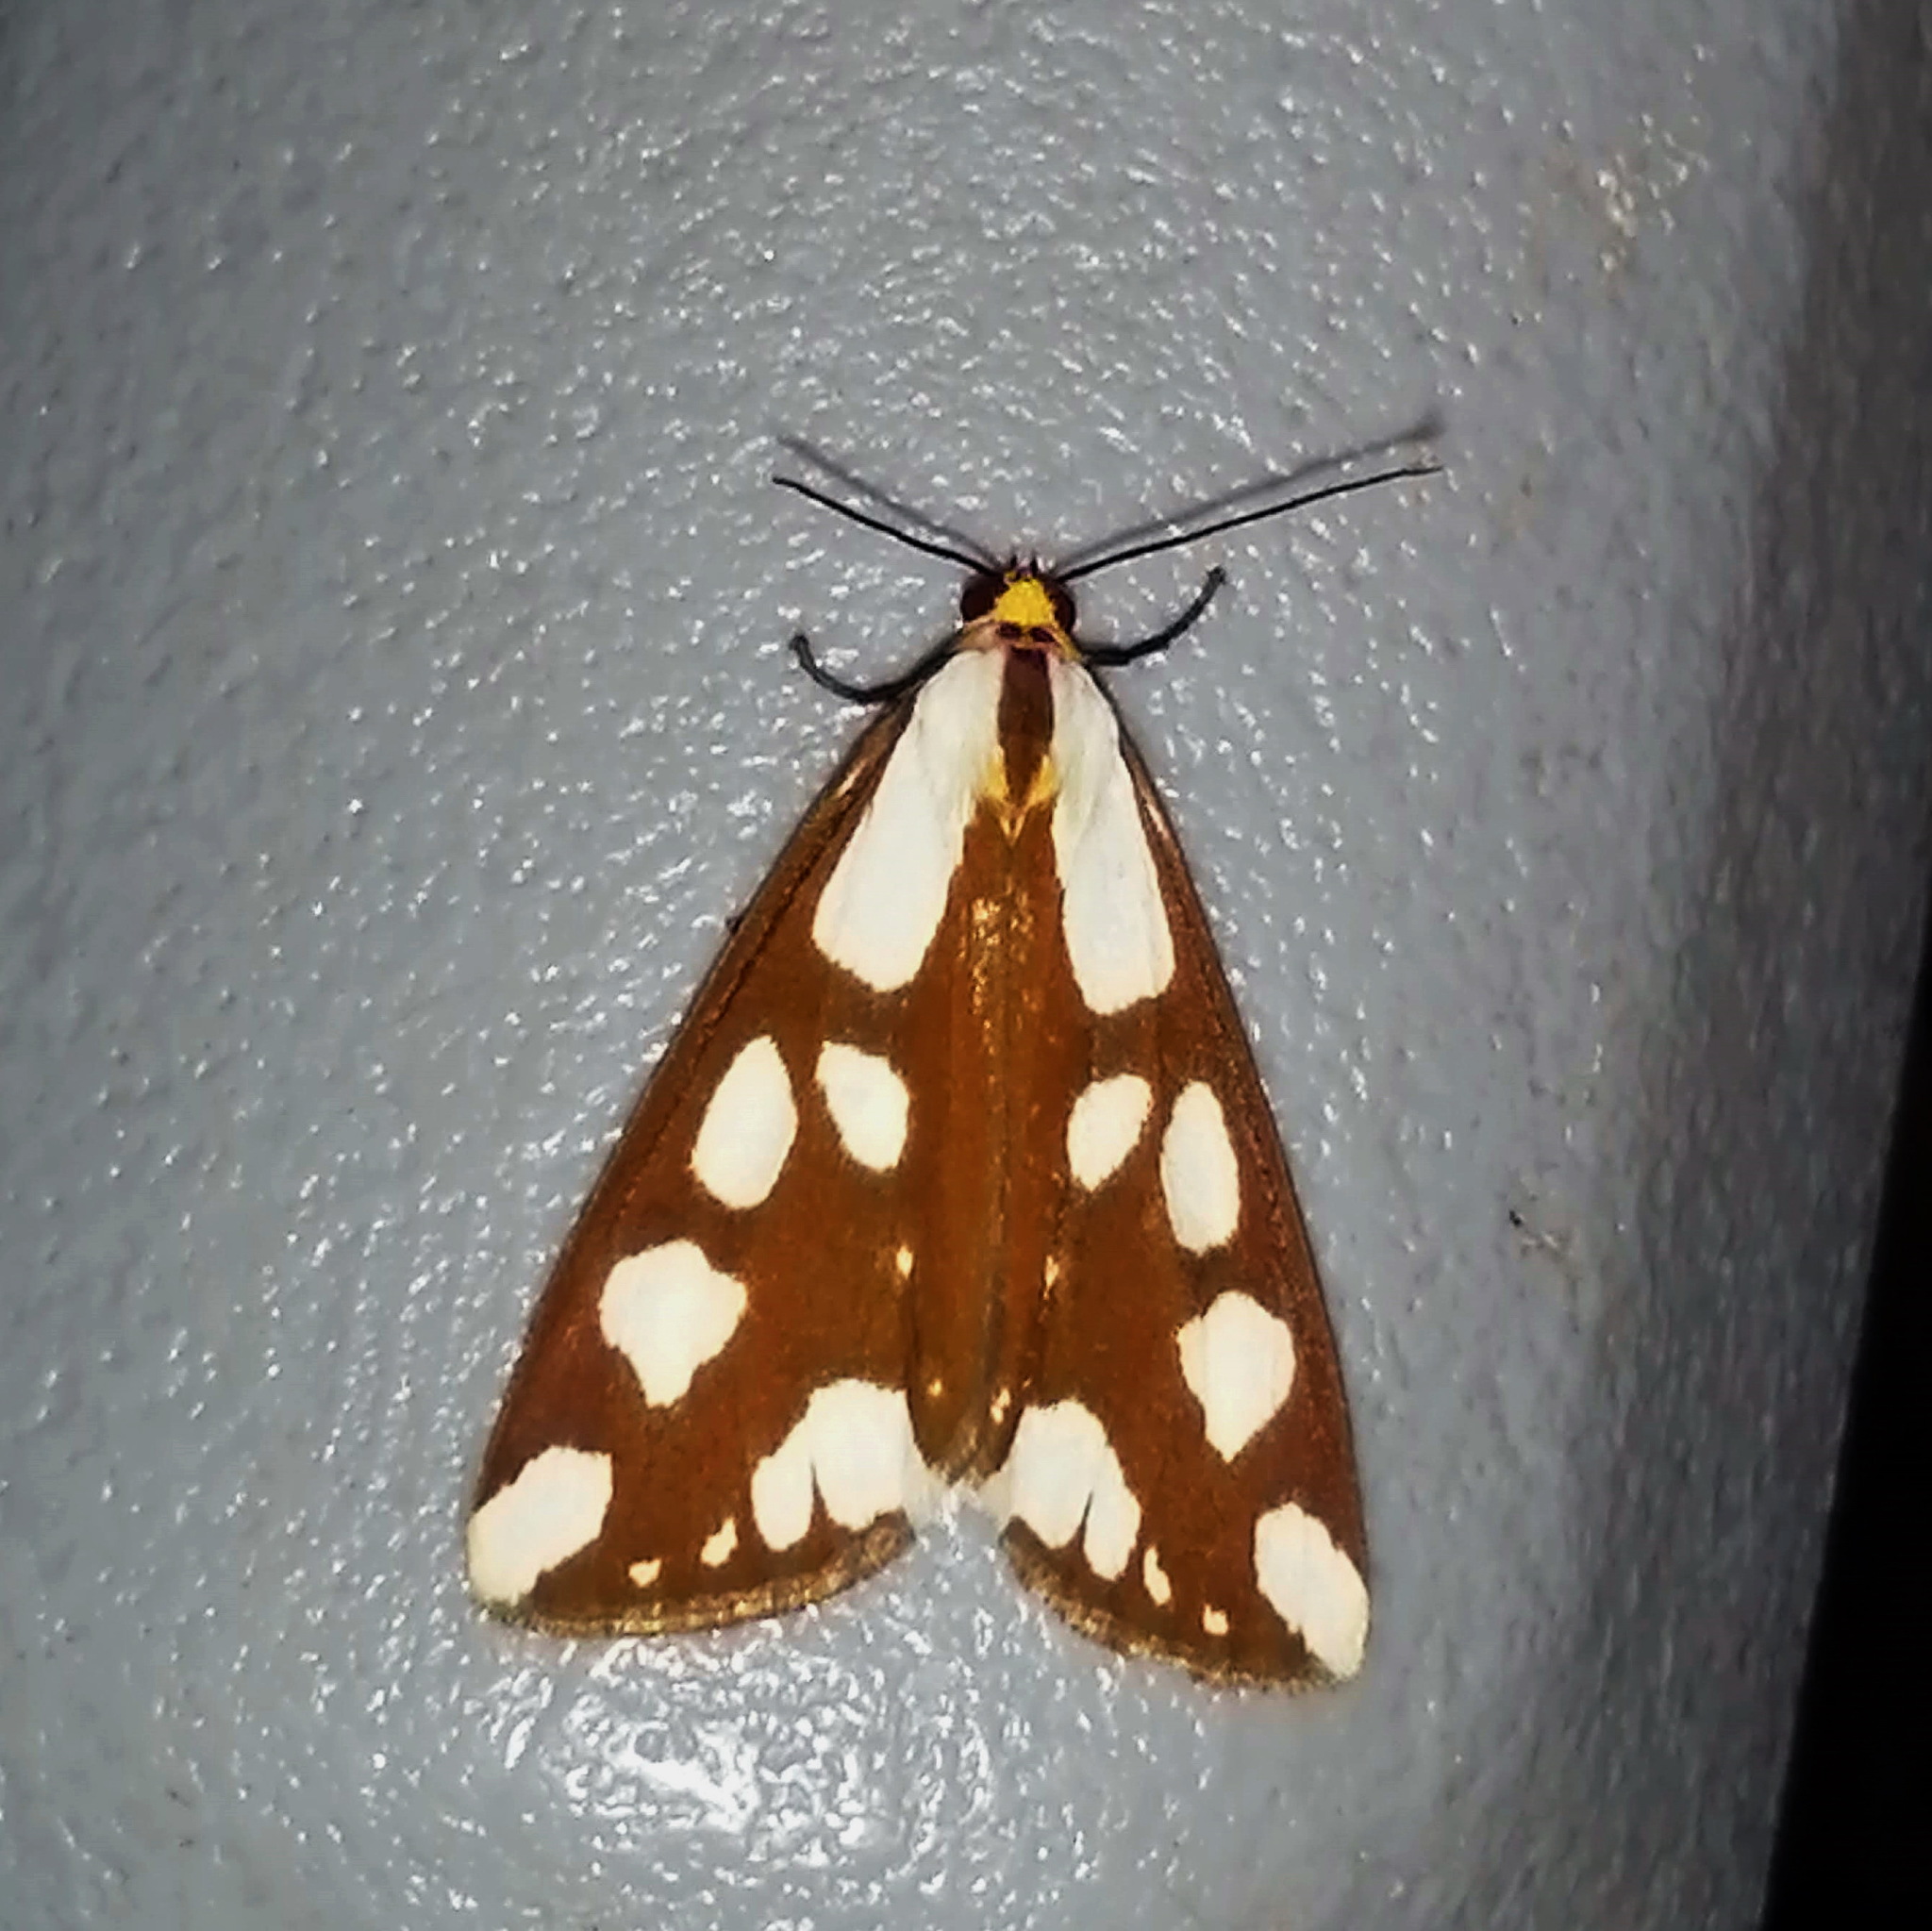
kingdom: Animalia
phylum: Arthropoda
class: Insecta
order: Lepidoptera
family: Erebidae
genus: Haploa
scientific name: Haploa confusa
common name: Confused haploa moth
